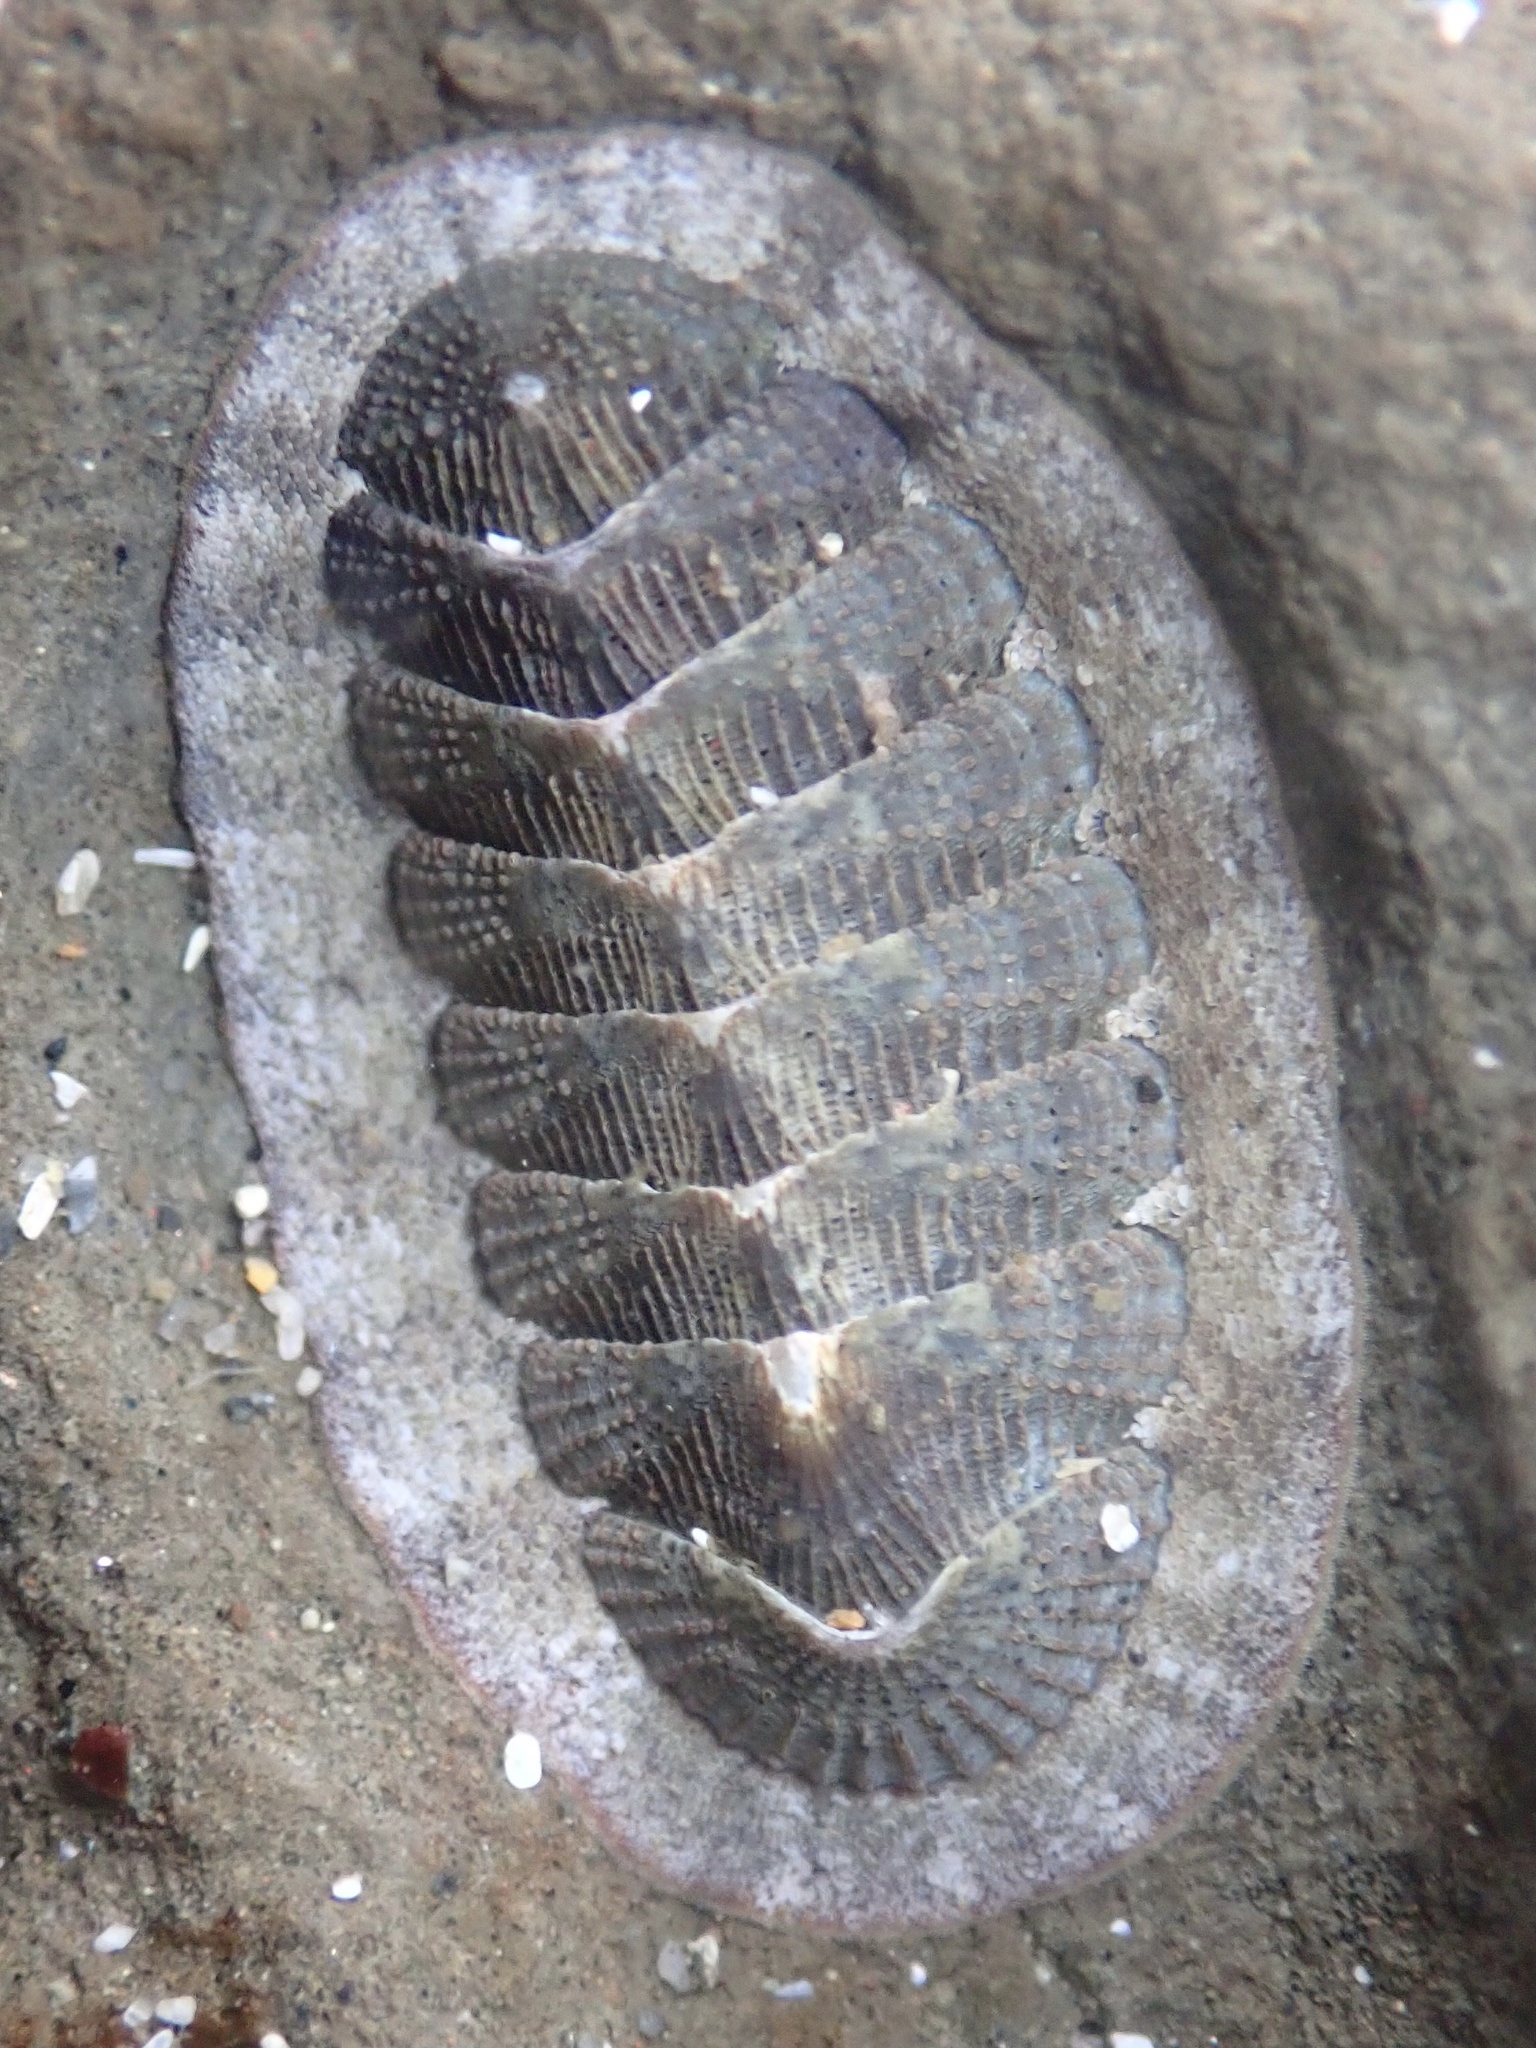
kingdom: Animalia
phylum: Mollusca
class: Polyplacophora
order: Chitonida
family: Ischnochitonidae
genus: Lepidozona
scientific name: Lepidozona cooperi
